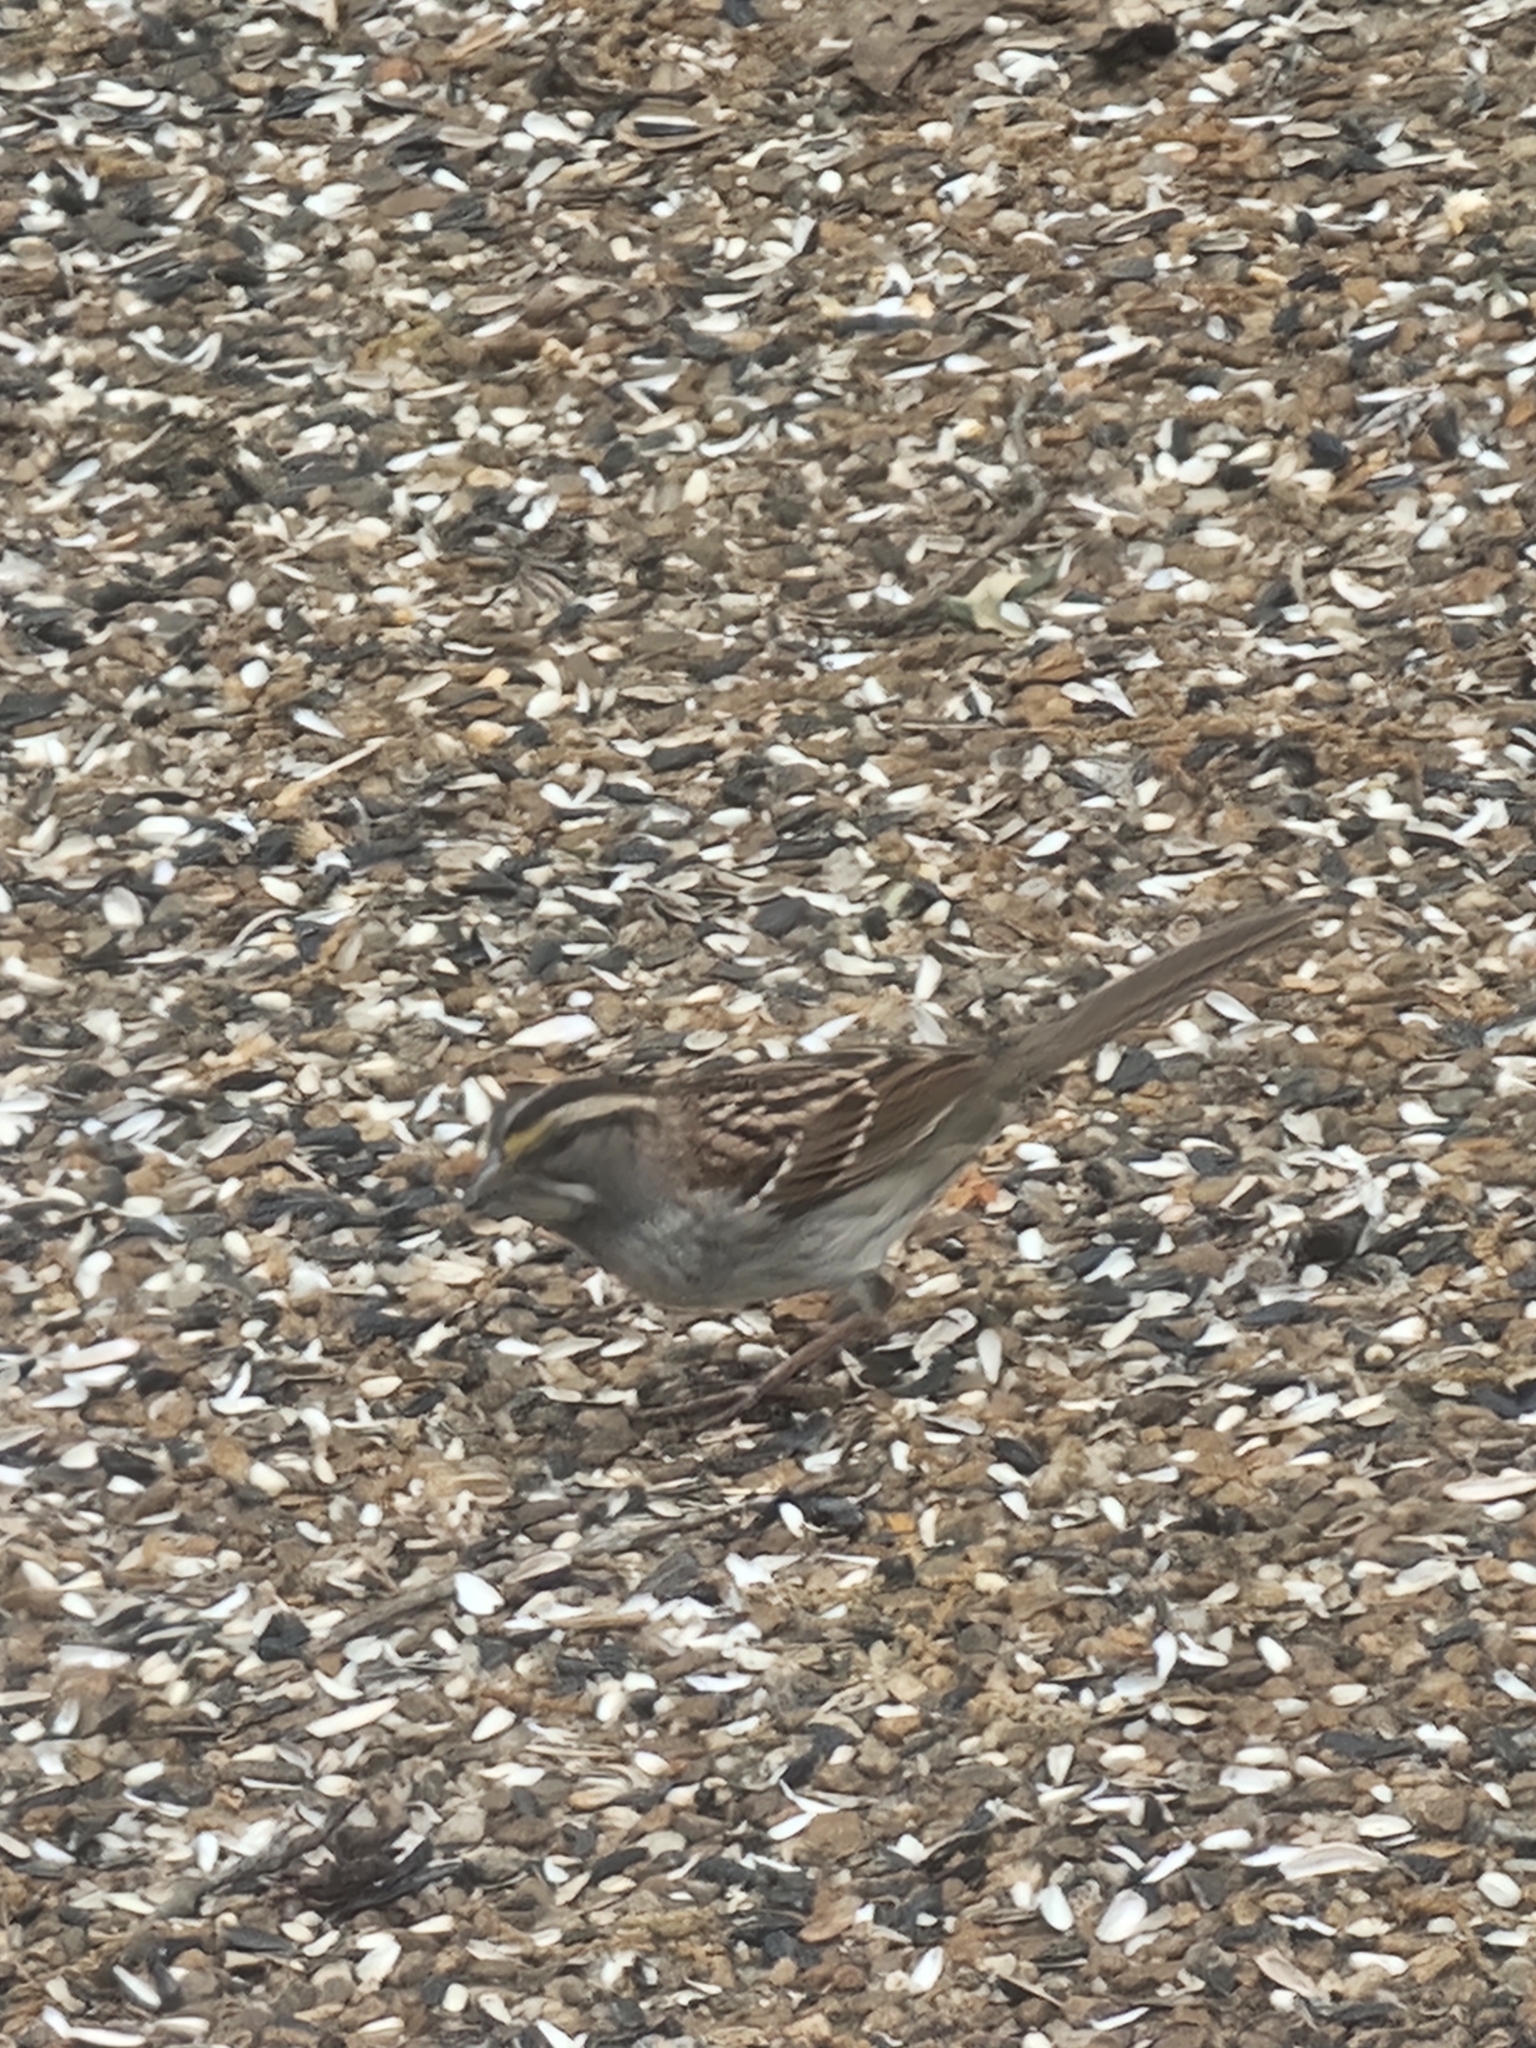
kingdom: Animalia
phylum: Chordata
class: Aves
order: Passeriformes
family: Passerellidae
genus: Zonotrichia
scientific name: Zonotrichia albicollis
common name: White-throated sparrow
